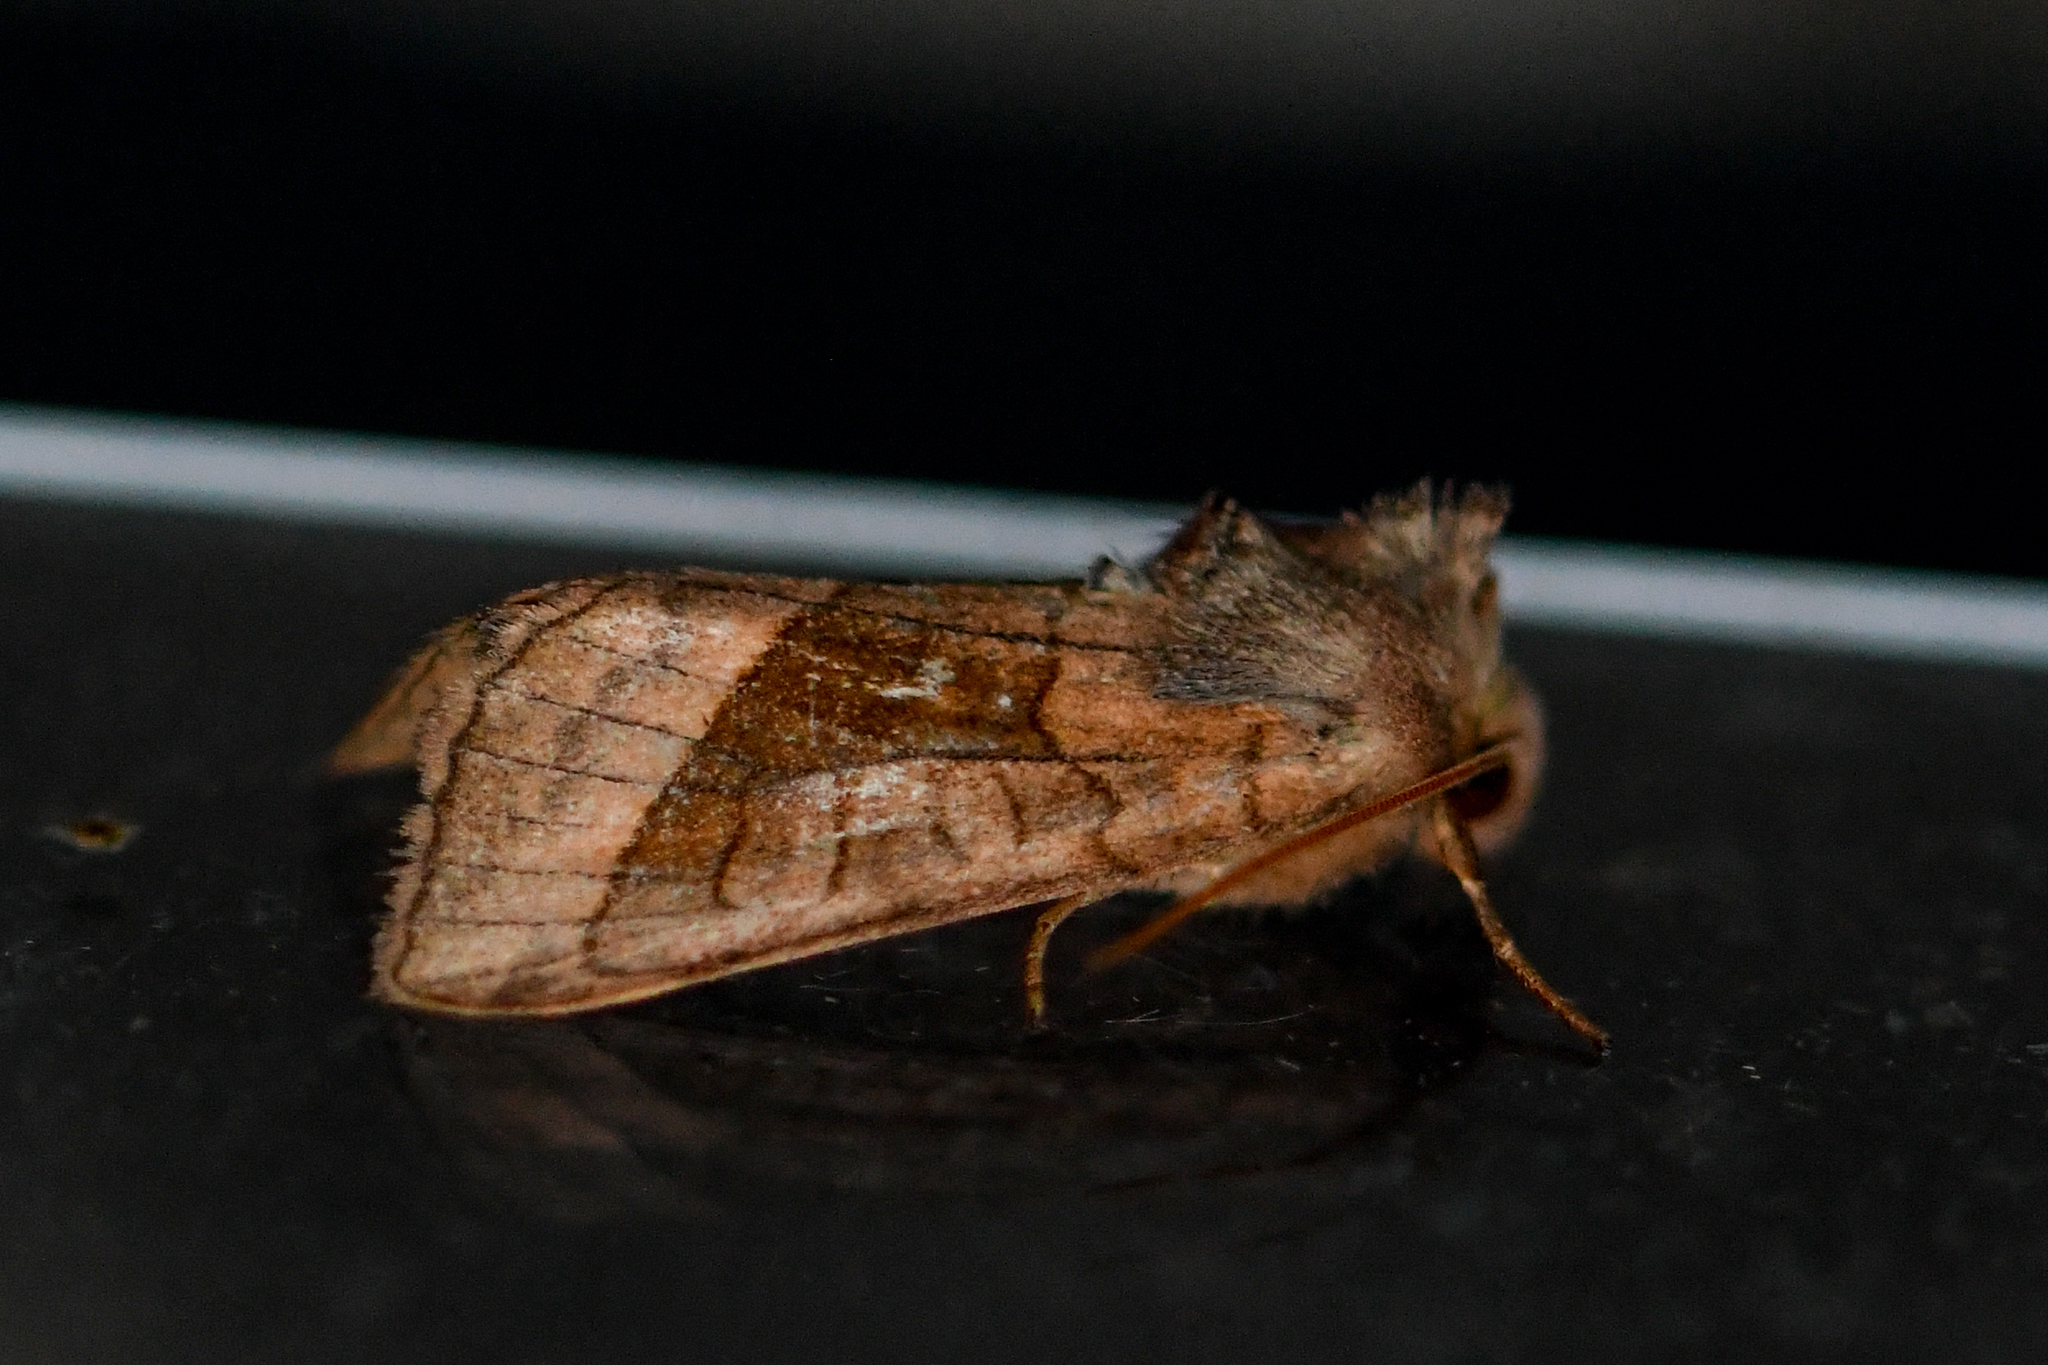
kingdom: Animalia
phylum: Arthropoda
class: Insecta
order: Lepidoptera
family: Noctuidae
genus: Hydraecia
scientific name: Hydraecia micacea
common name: Rosy rustic
